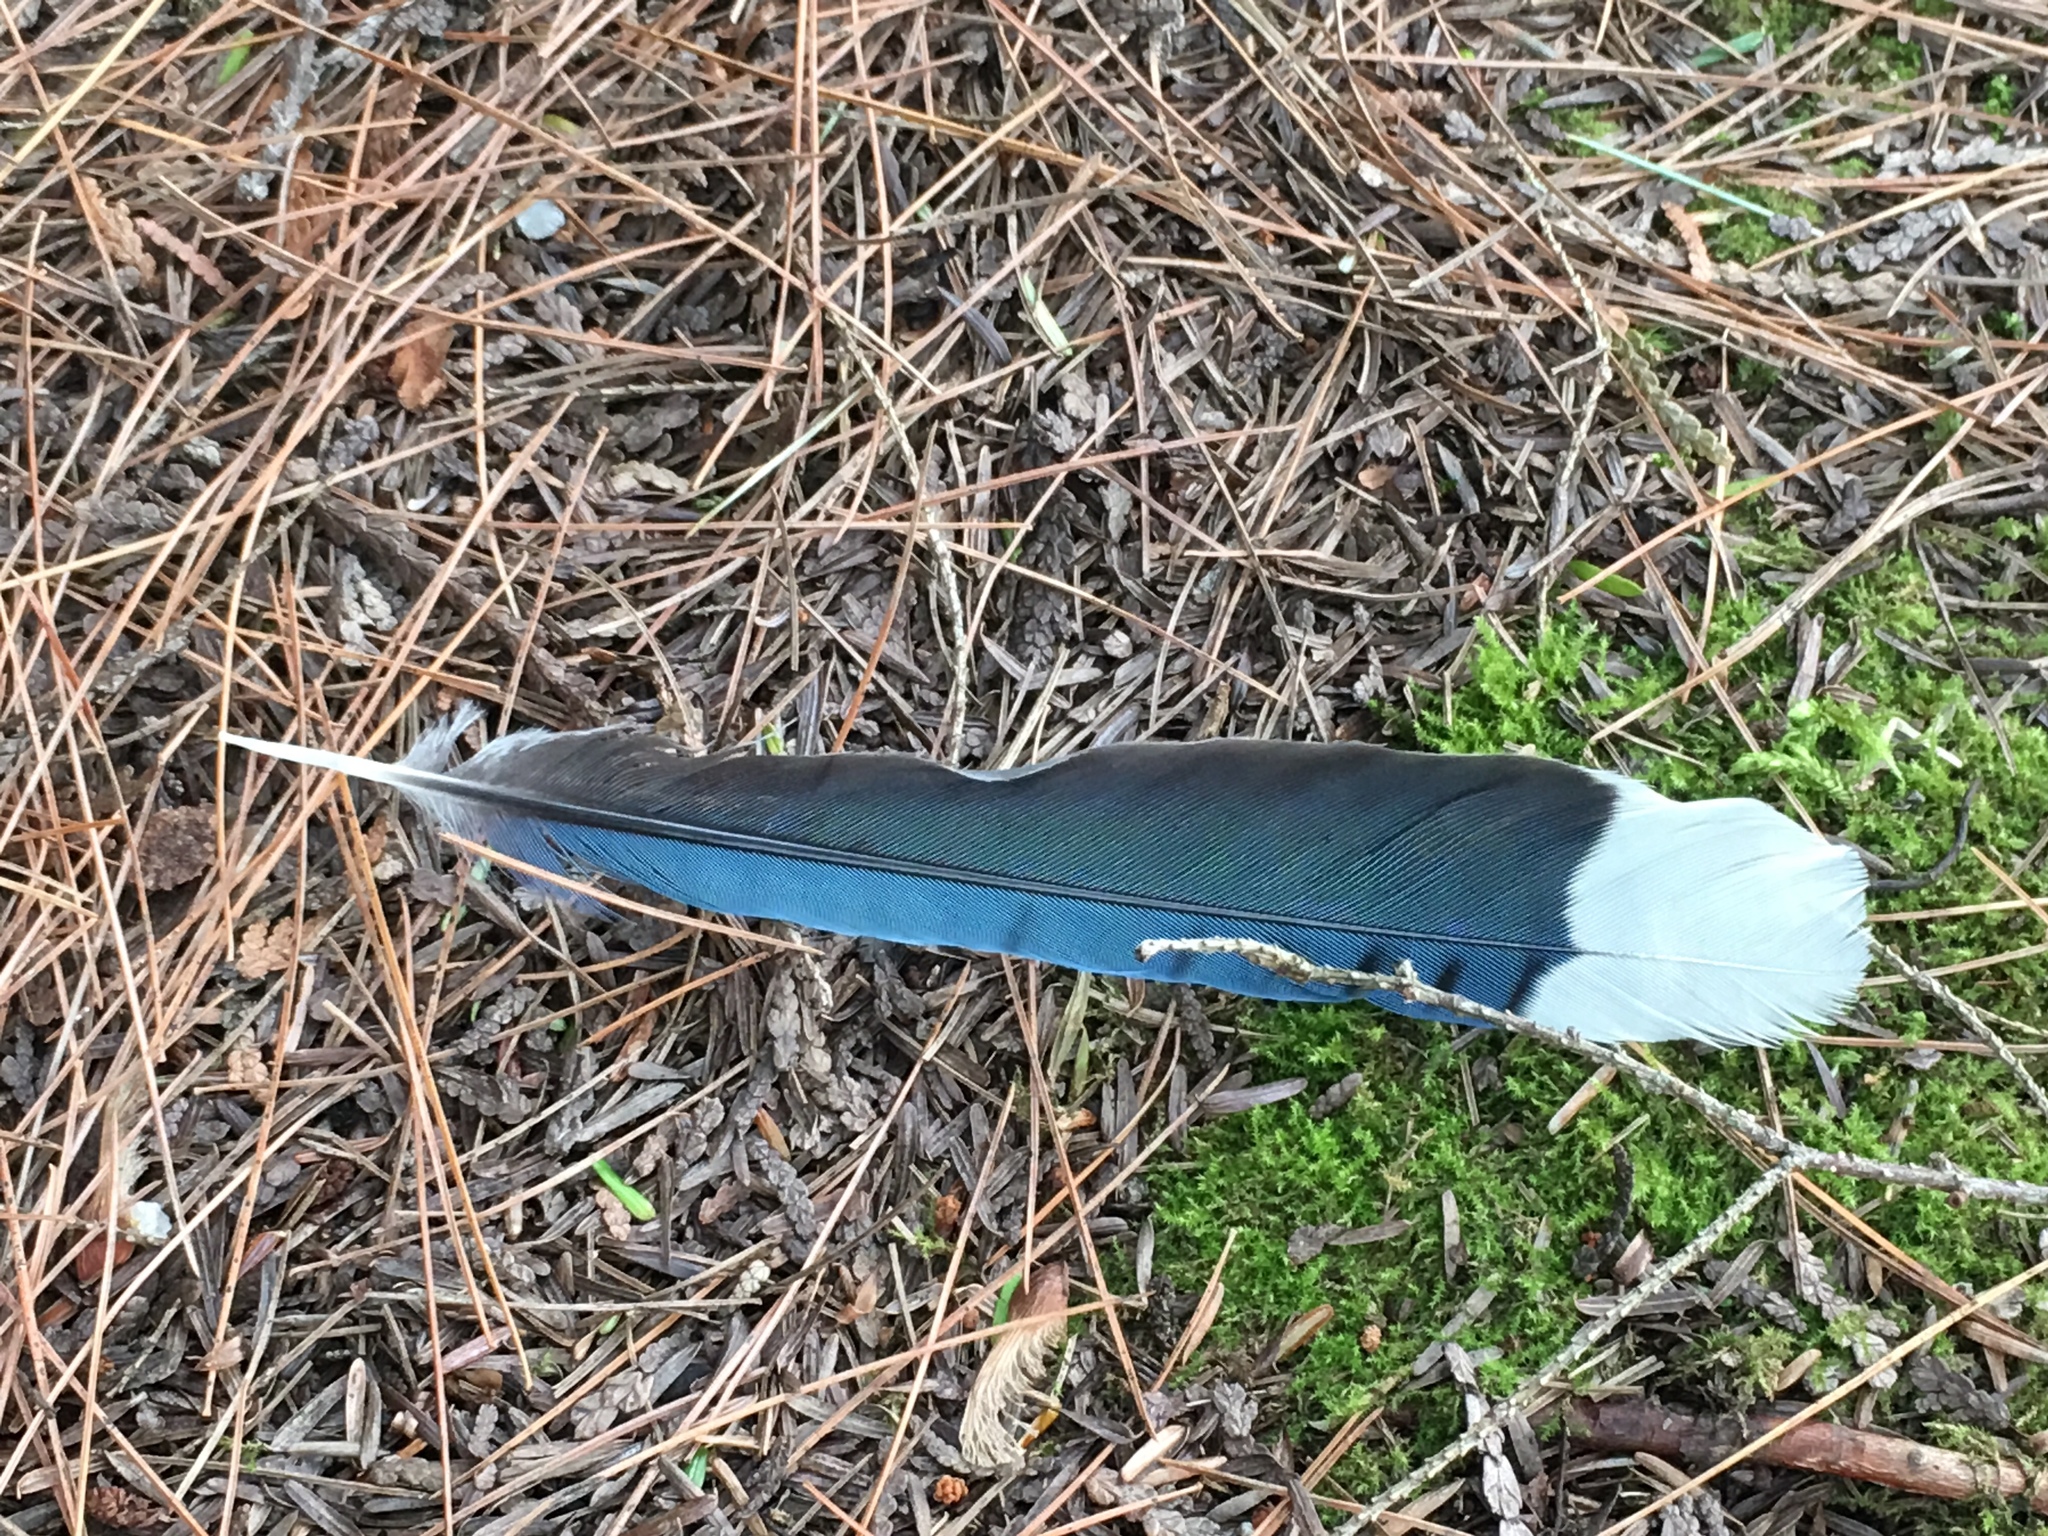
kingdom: Animalia
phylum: Chordata
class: Aves
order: Passeriformes
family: Corvidae
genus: Cyanocitta
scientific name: Cyanocitta cristata
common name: Blue jay
